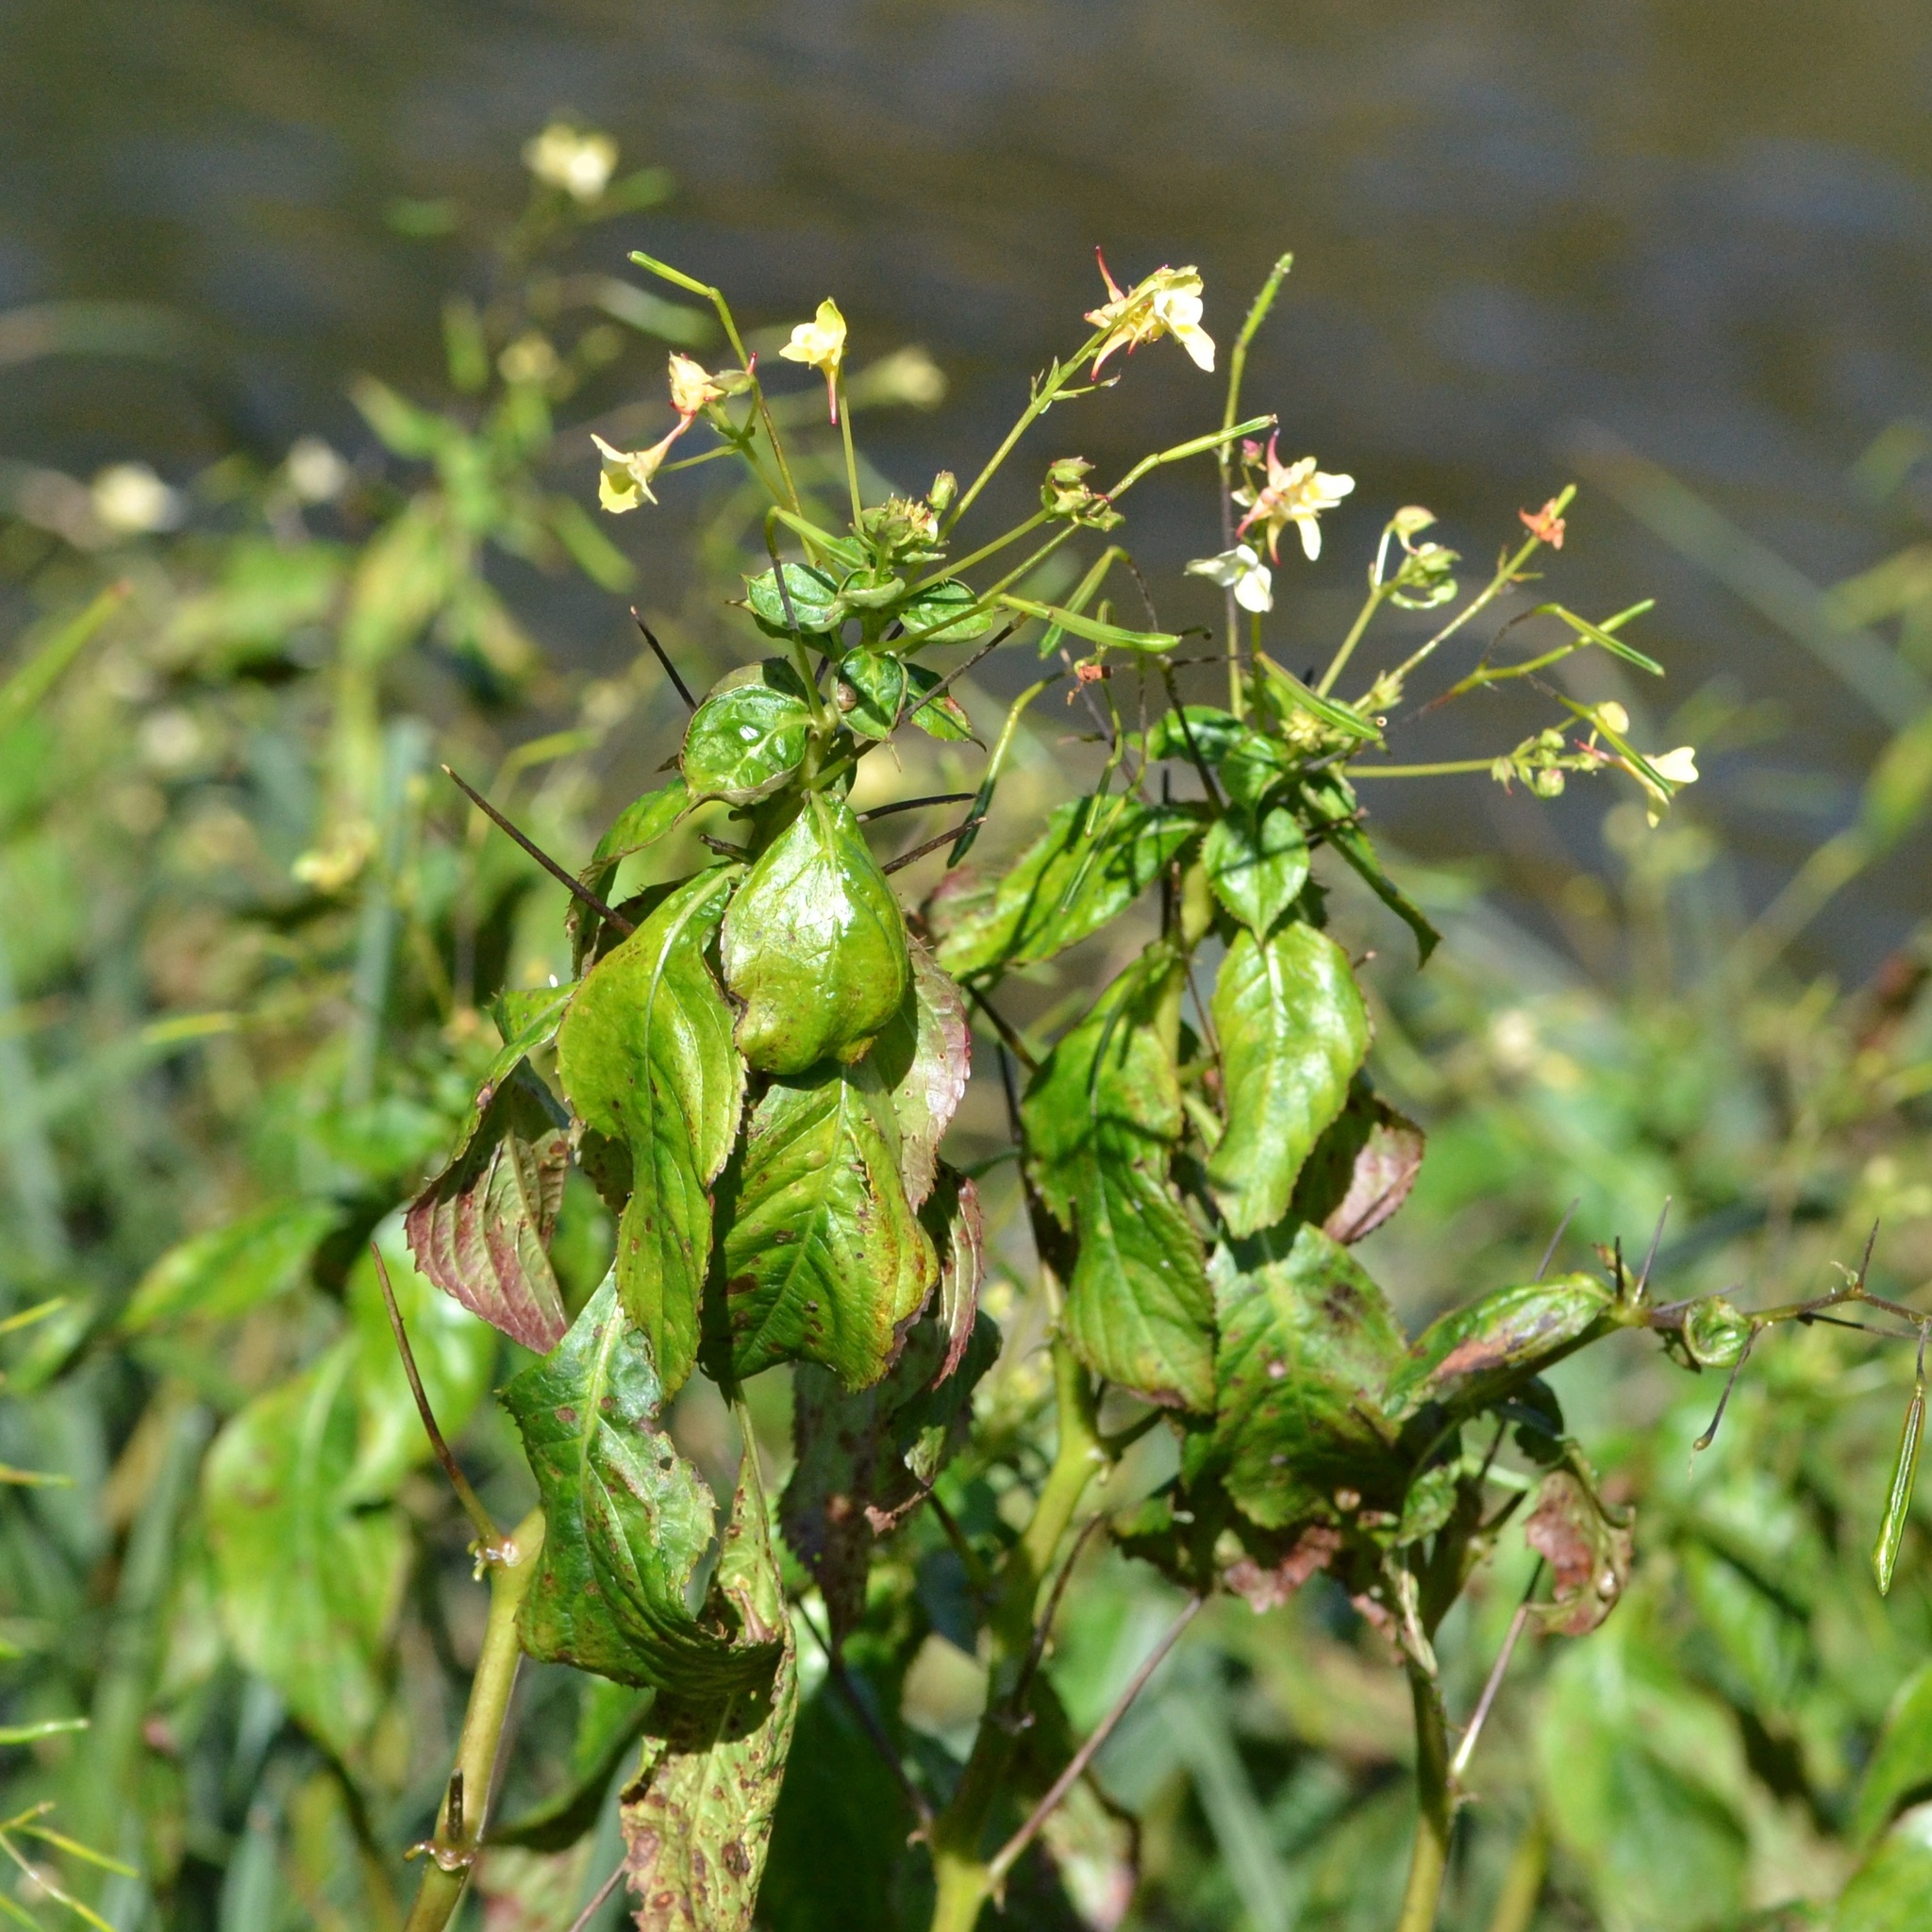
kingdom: Plantae
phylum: Tracheophyta
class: Magnoliopsida
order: Ericales
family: Balsaminaceae
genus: Impatiens
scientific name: Impatiens parviflora
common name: Small balsam
